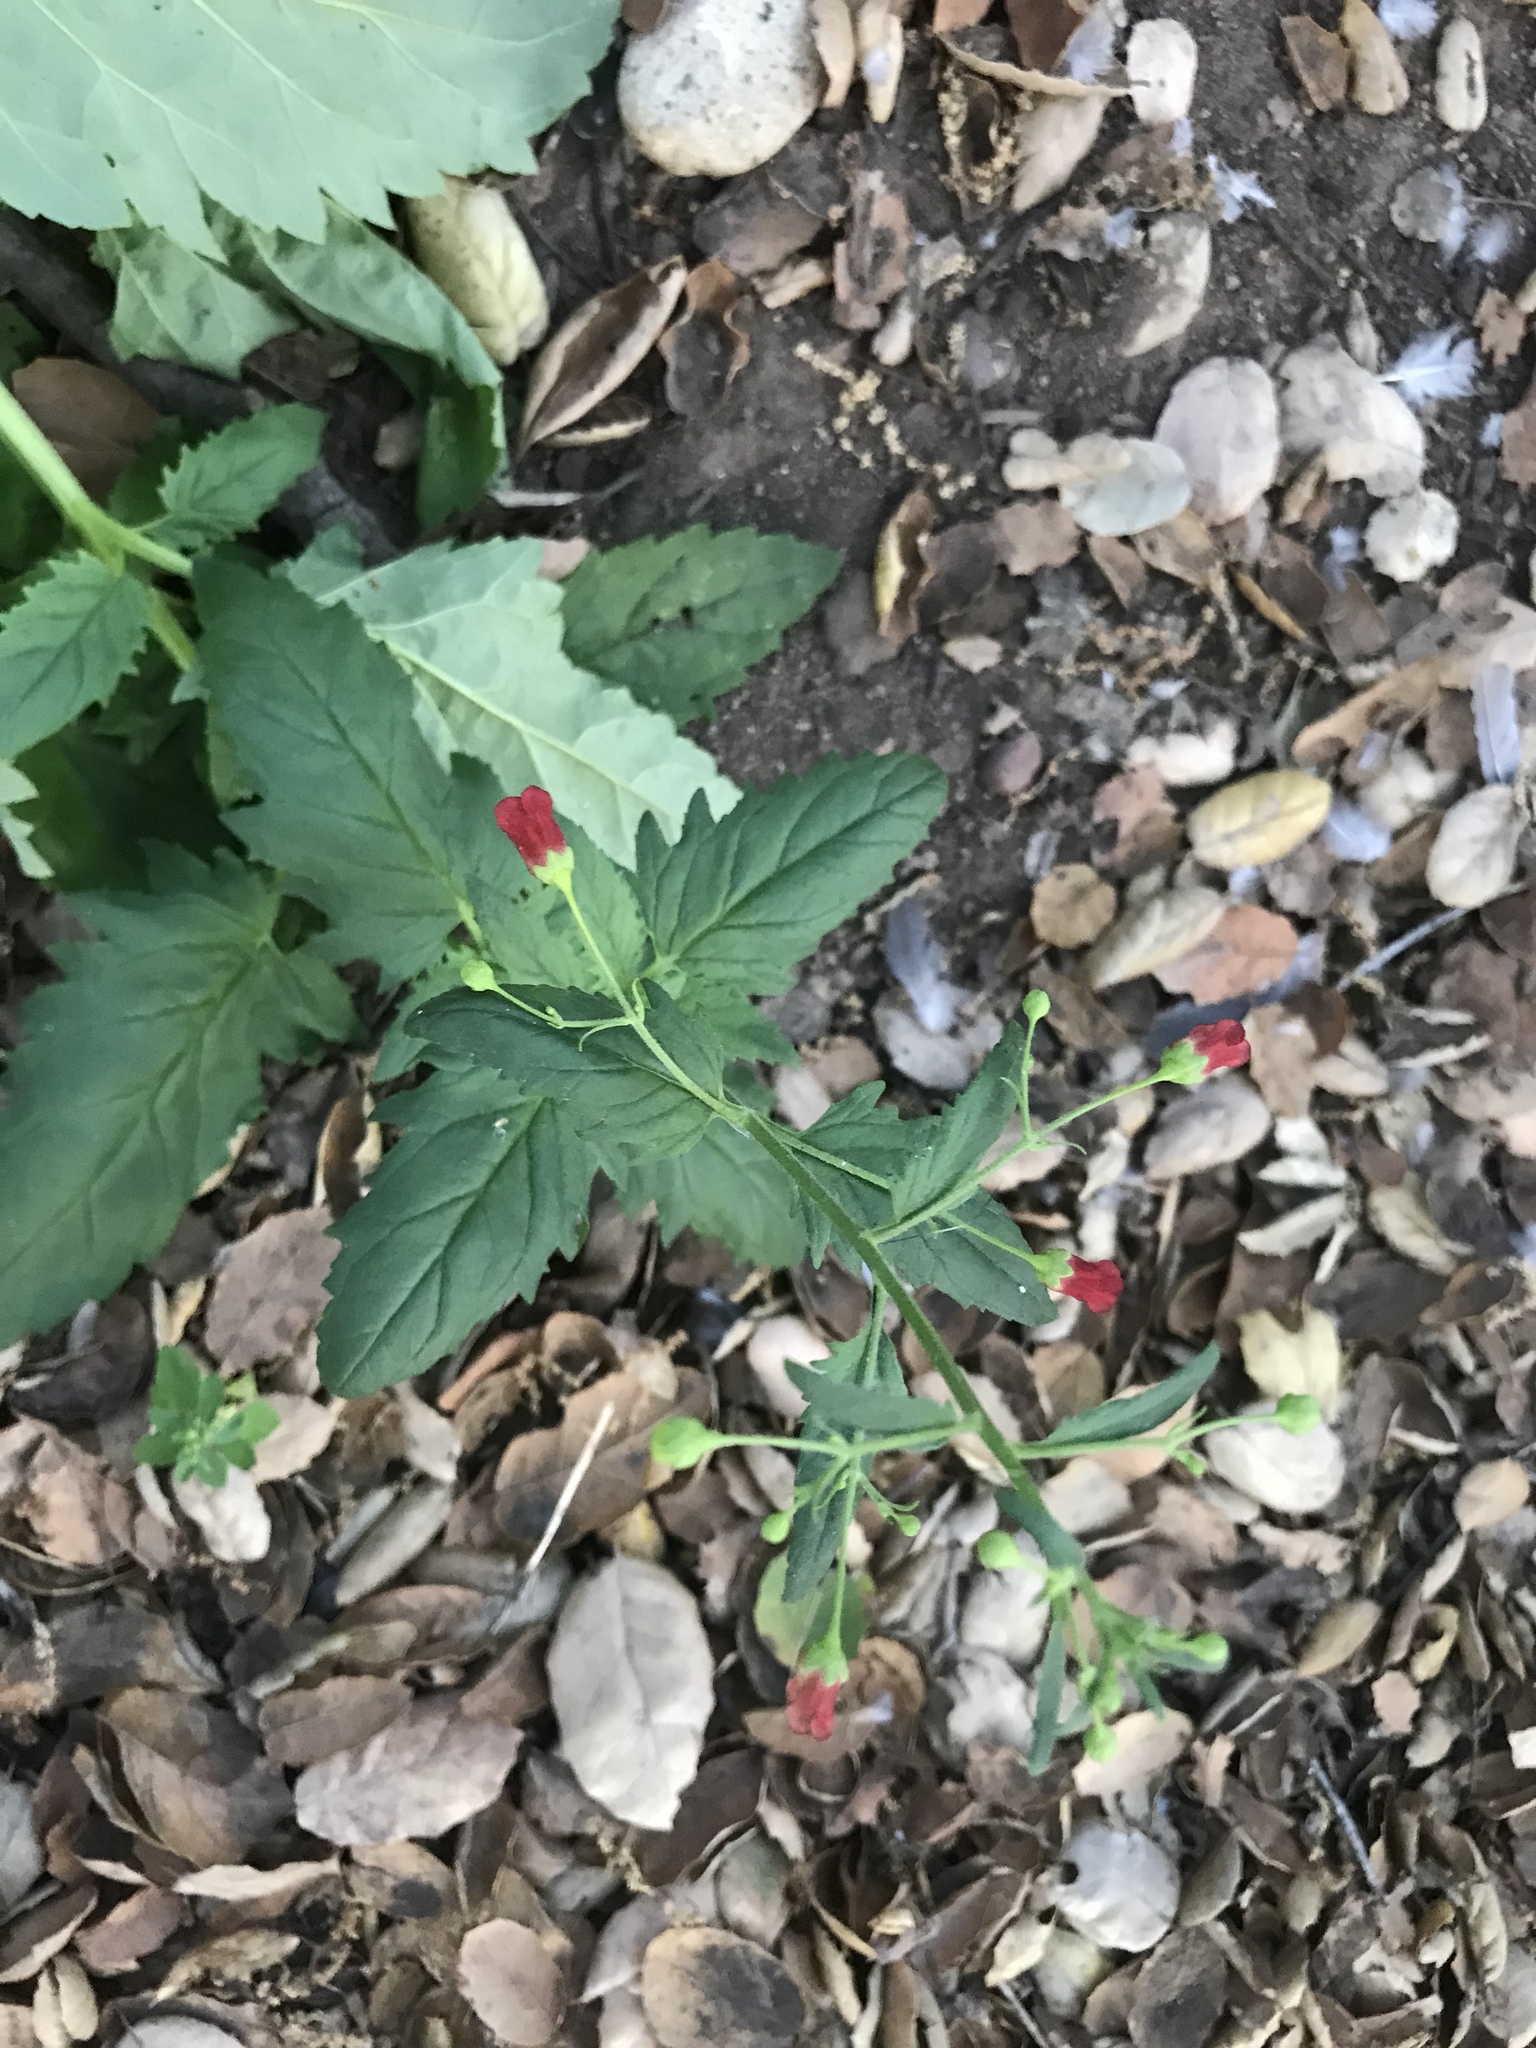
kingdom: Plantae
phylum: Tracheophyta
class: Magnoliopsida
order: Lamiales
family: Scrophulariaceae
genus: Scrophularia
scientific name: Scrophularia californica
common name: California figwort
